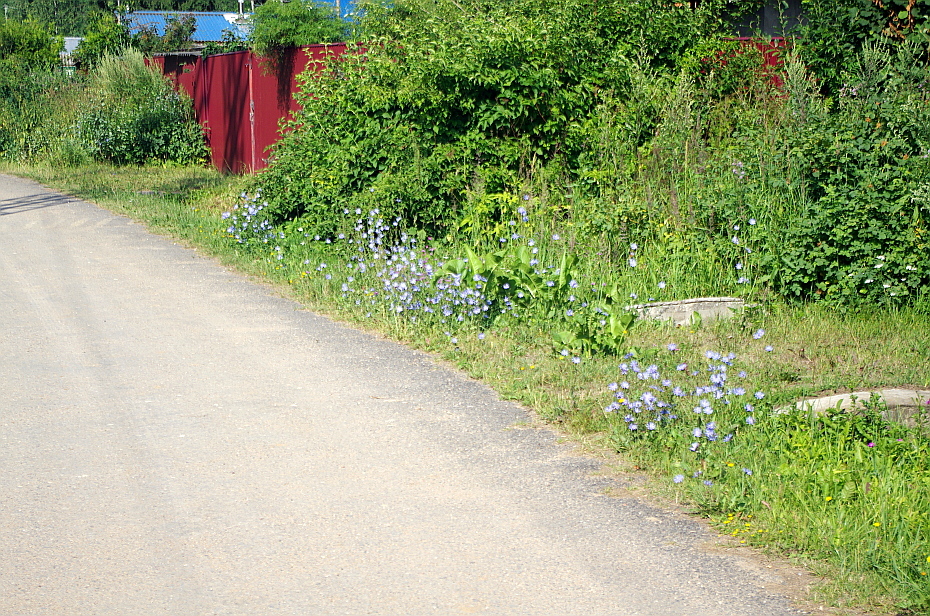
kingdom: Plantae
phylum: Tracheophyta
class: Magnoliopsida
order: Asterales
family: Asteraceae
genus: Cichorium
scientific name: Cichorium intybus
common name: Chicory
